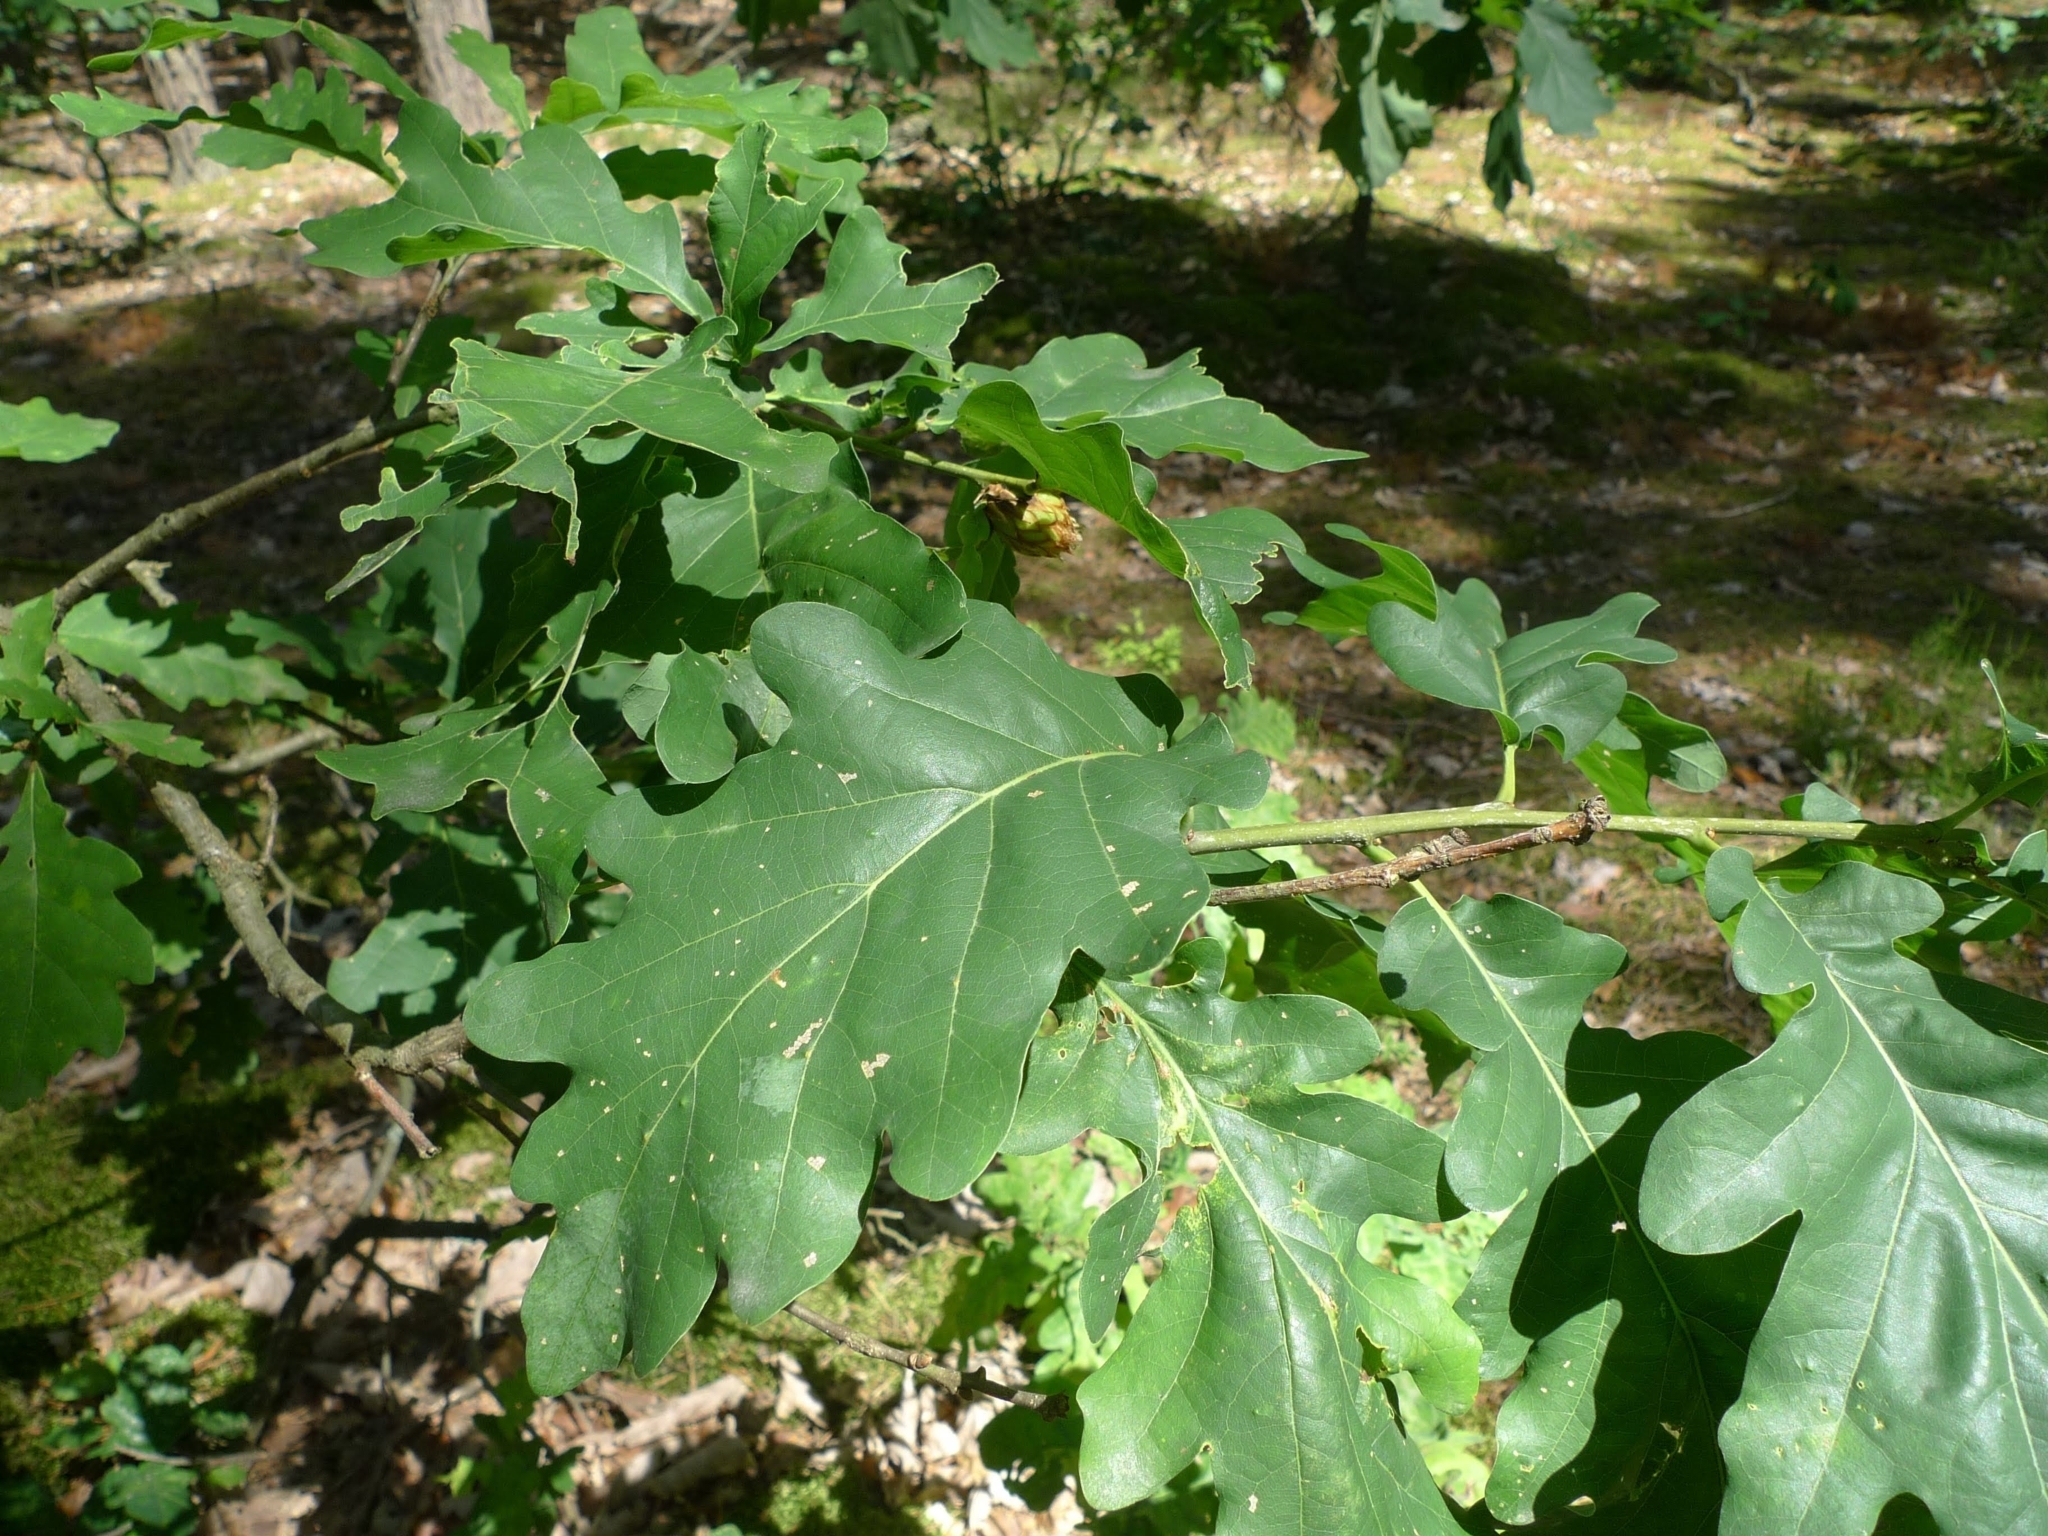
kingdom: Plantae
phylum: Tracheophyta
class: Magnoliopsida
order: Fagales
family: Fagaceae
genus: Quercus
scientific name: Quercus robur
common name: Pedunculate oak
